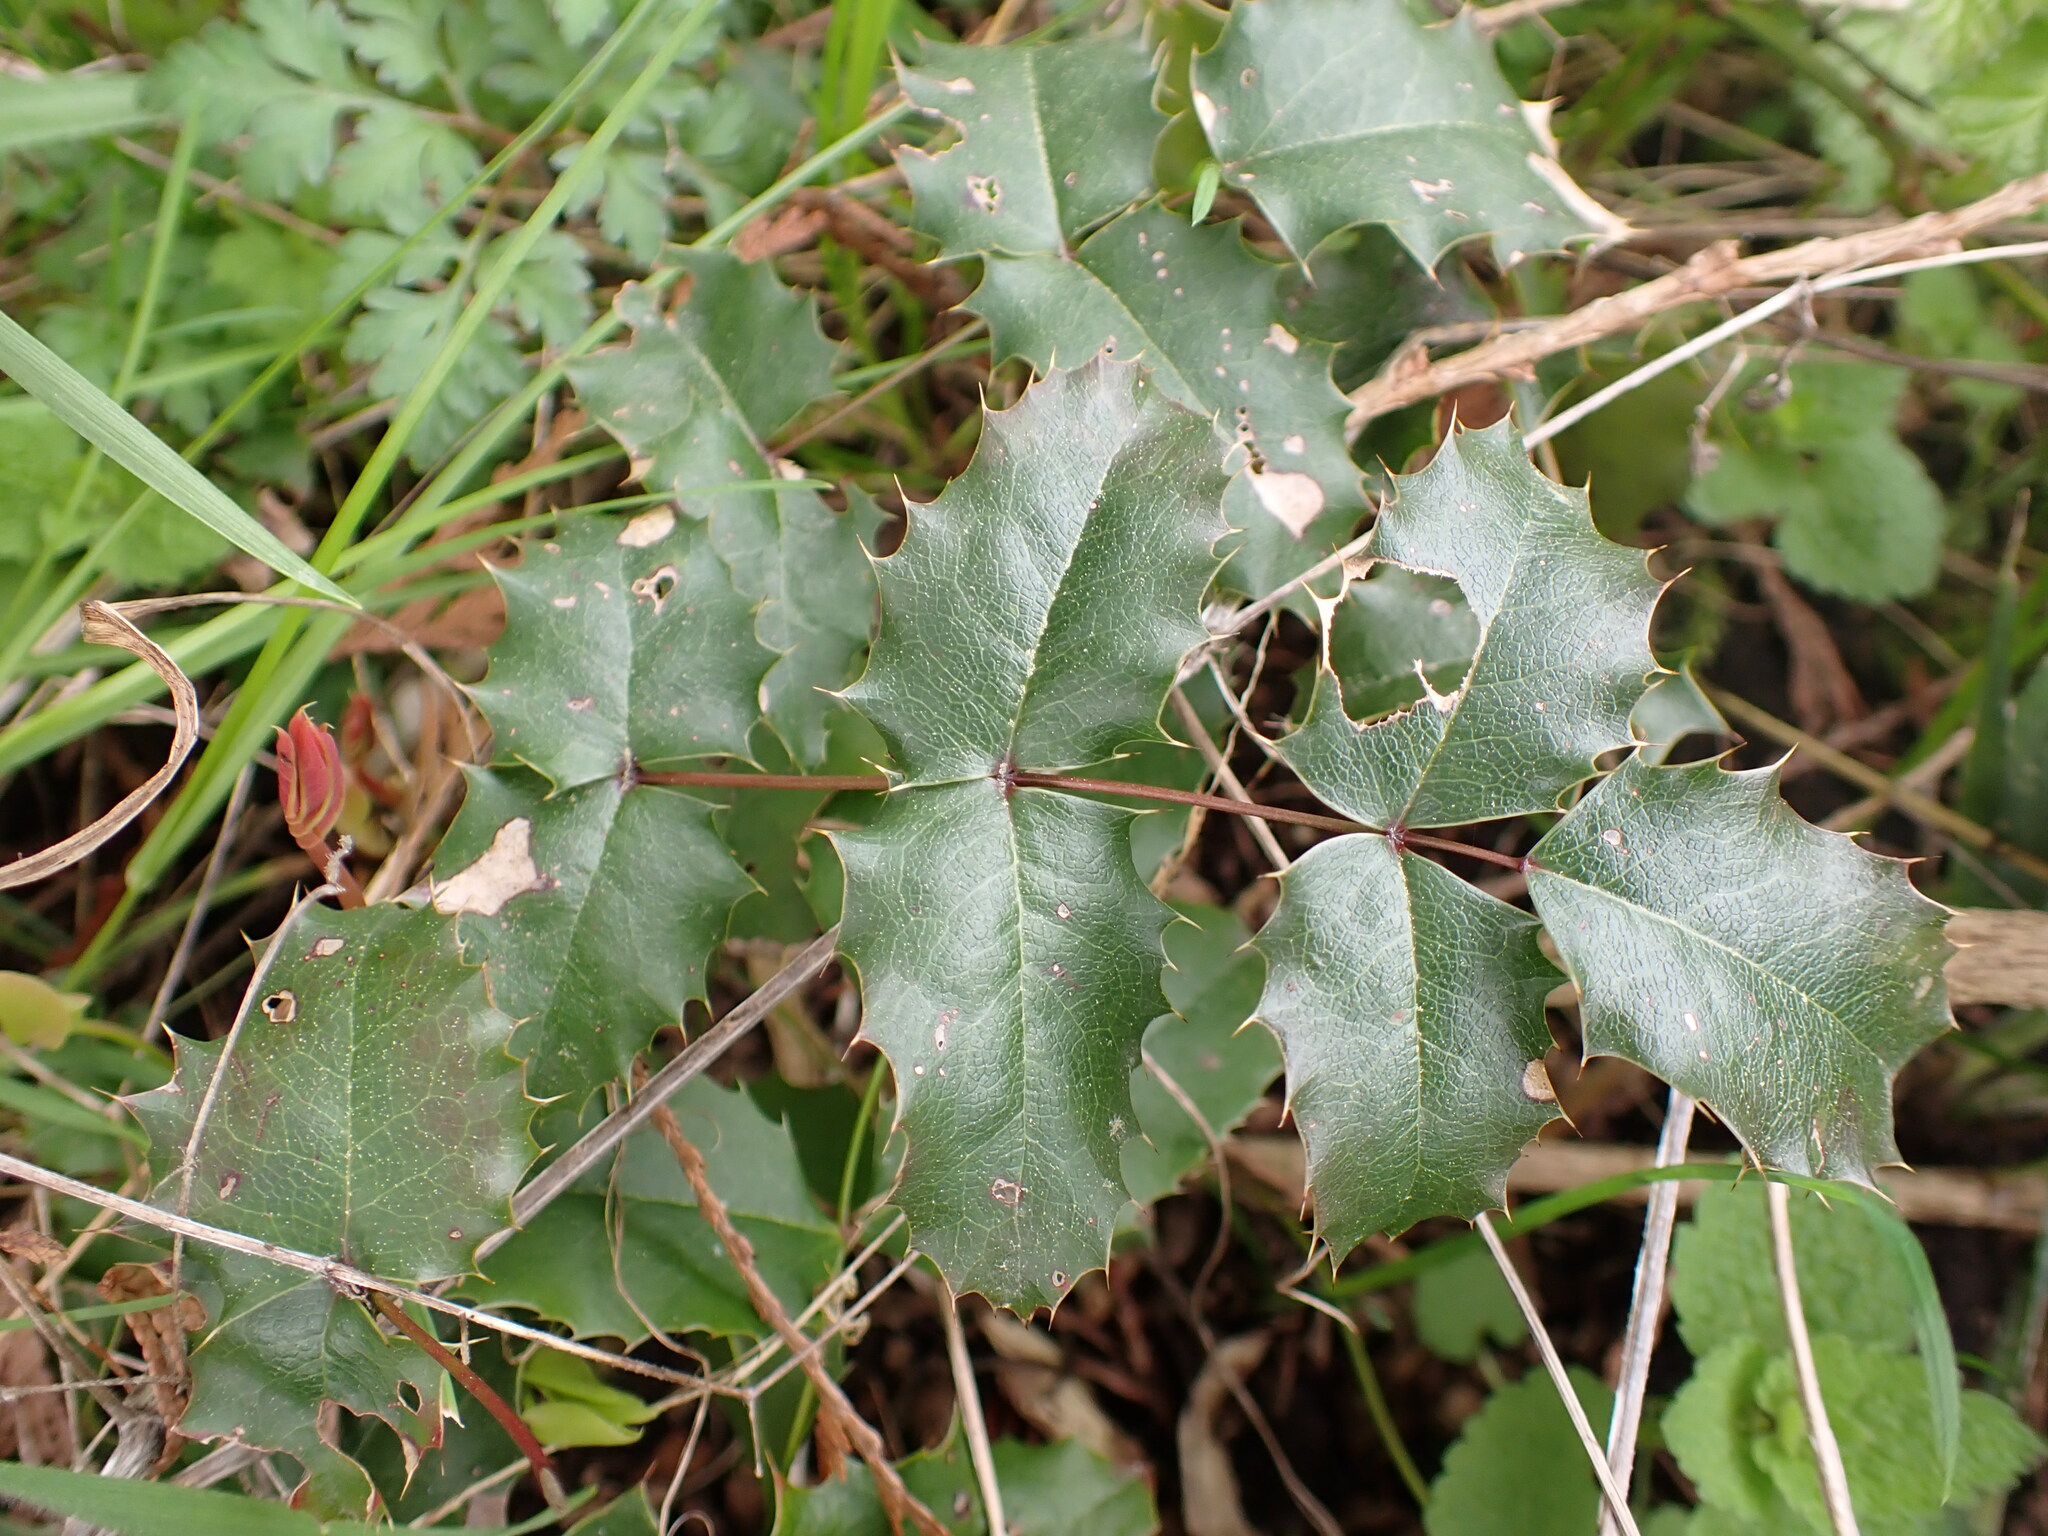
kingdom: Plantae
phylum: Tracheophyta
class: Magnoliopsida
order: Ranunculales
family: Berberidaceae
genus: Mahonia
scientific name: Mahonia aquifolium
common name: Oregon-grape
